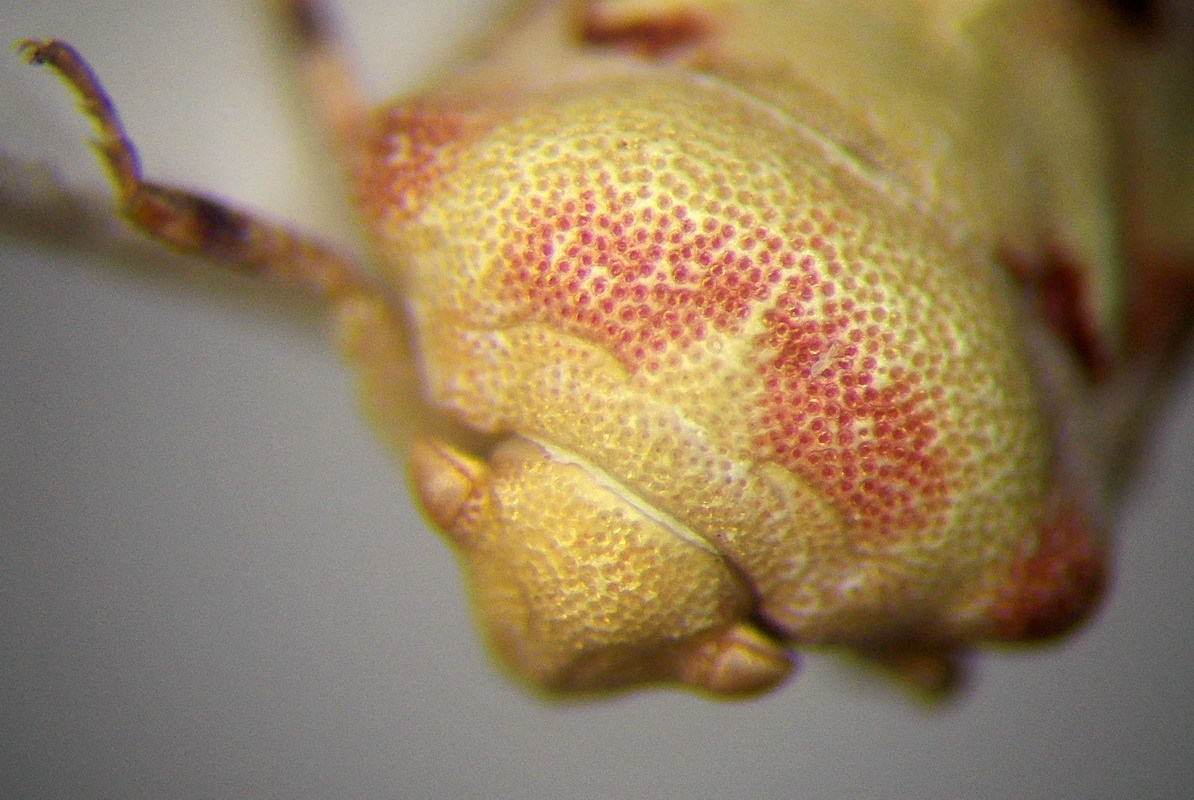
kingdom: Animalia
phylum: Arthropoda
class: Insecta
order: Hemiptera
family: Pentatomidae
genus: Tarisa
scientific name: Tarisa salsolae
